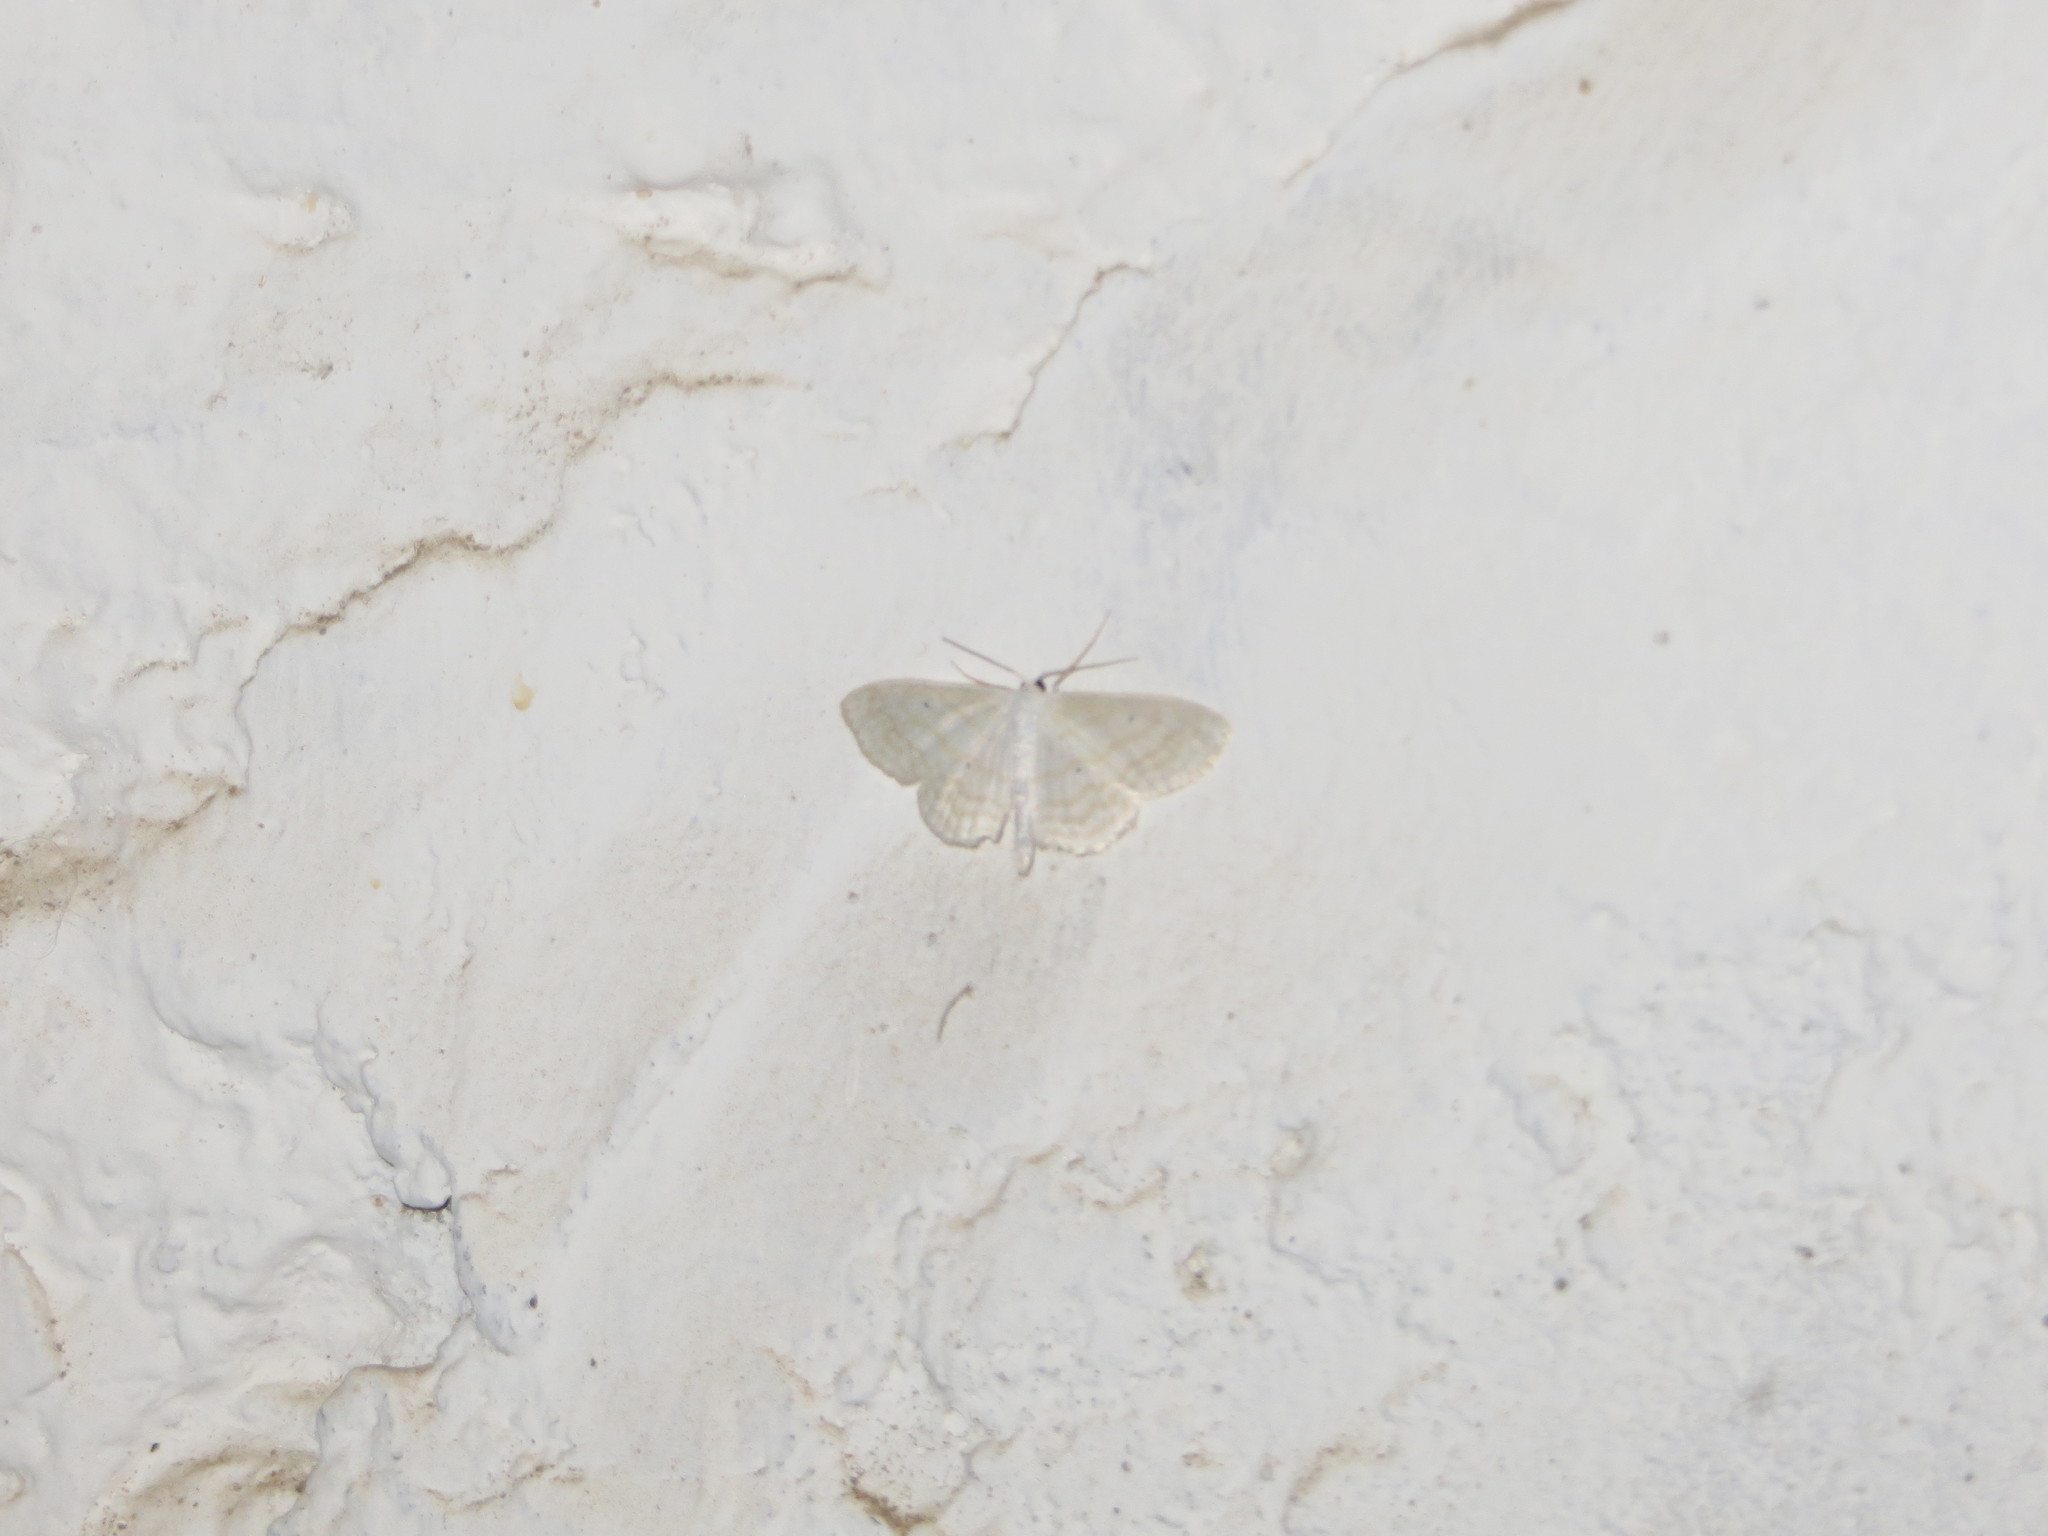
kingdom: Animalia
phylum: Arthropoda
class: Insecta
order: Lepidoptera
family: Geometridae
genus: Scopula
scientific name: Scopula subpunctaria
